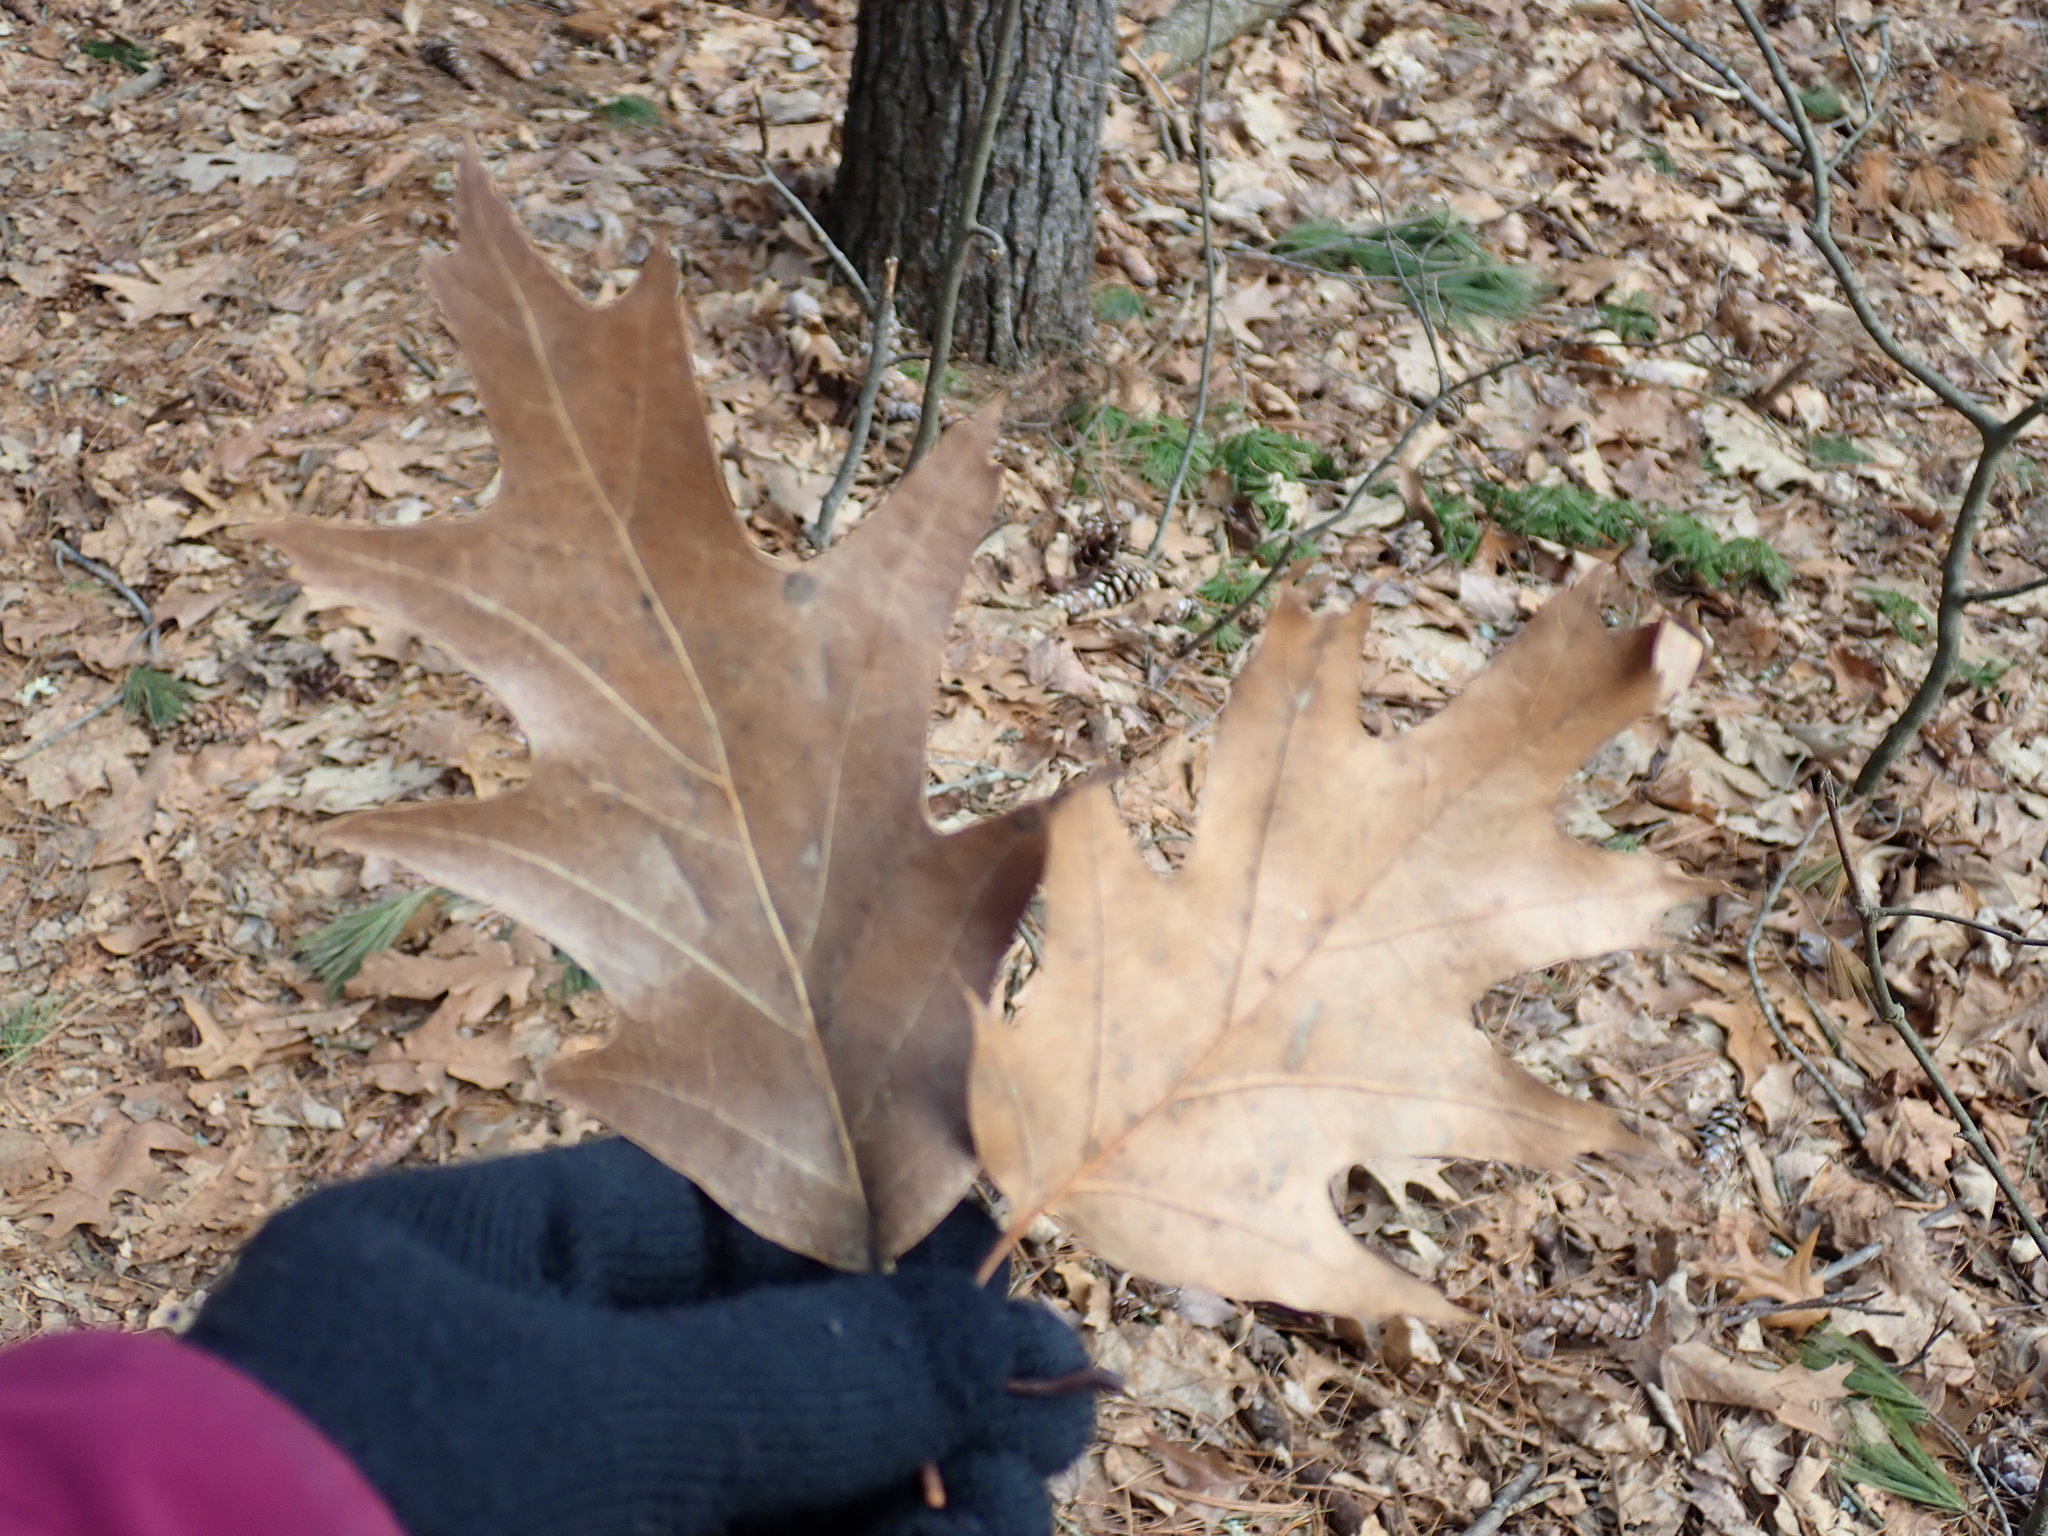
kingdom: Plantae
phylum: Tracheophyta
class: Magnoliopsida
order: Fagales
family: Fagaceae
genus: Quercus
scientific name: Quercus rubra
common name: Red oak
